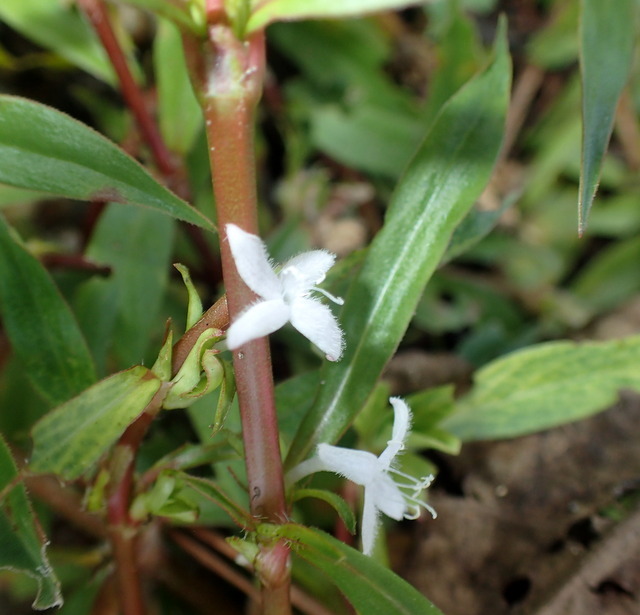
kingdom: Plantae
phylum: Tracheophyta
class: Magnoliopsida
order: Gentianales
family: Rubiaceae
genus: Diodia
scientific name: Diodia virginiana
